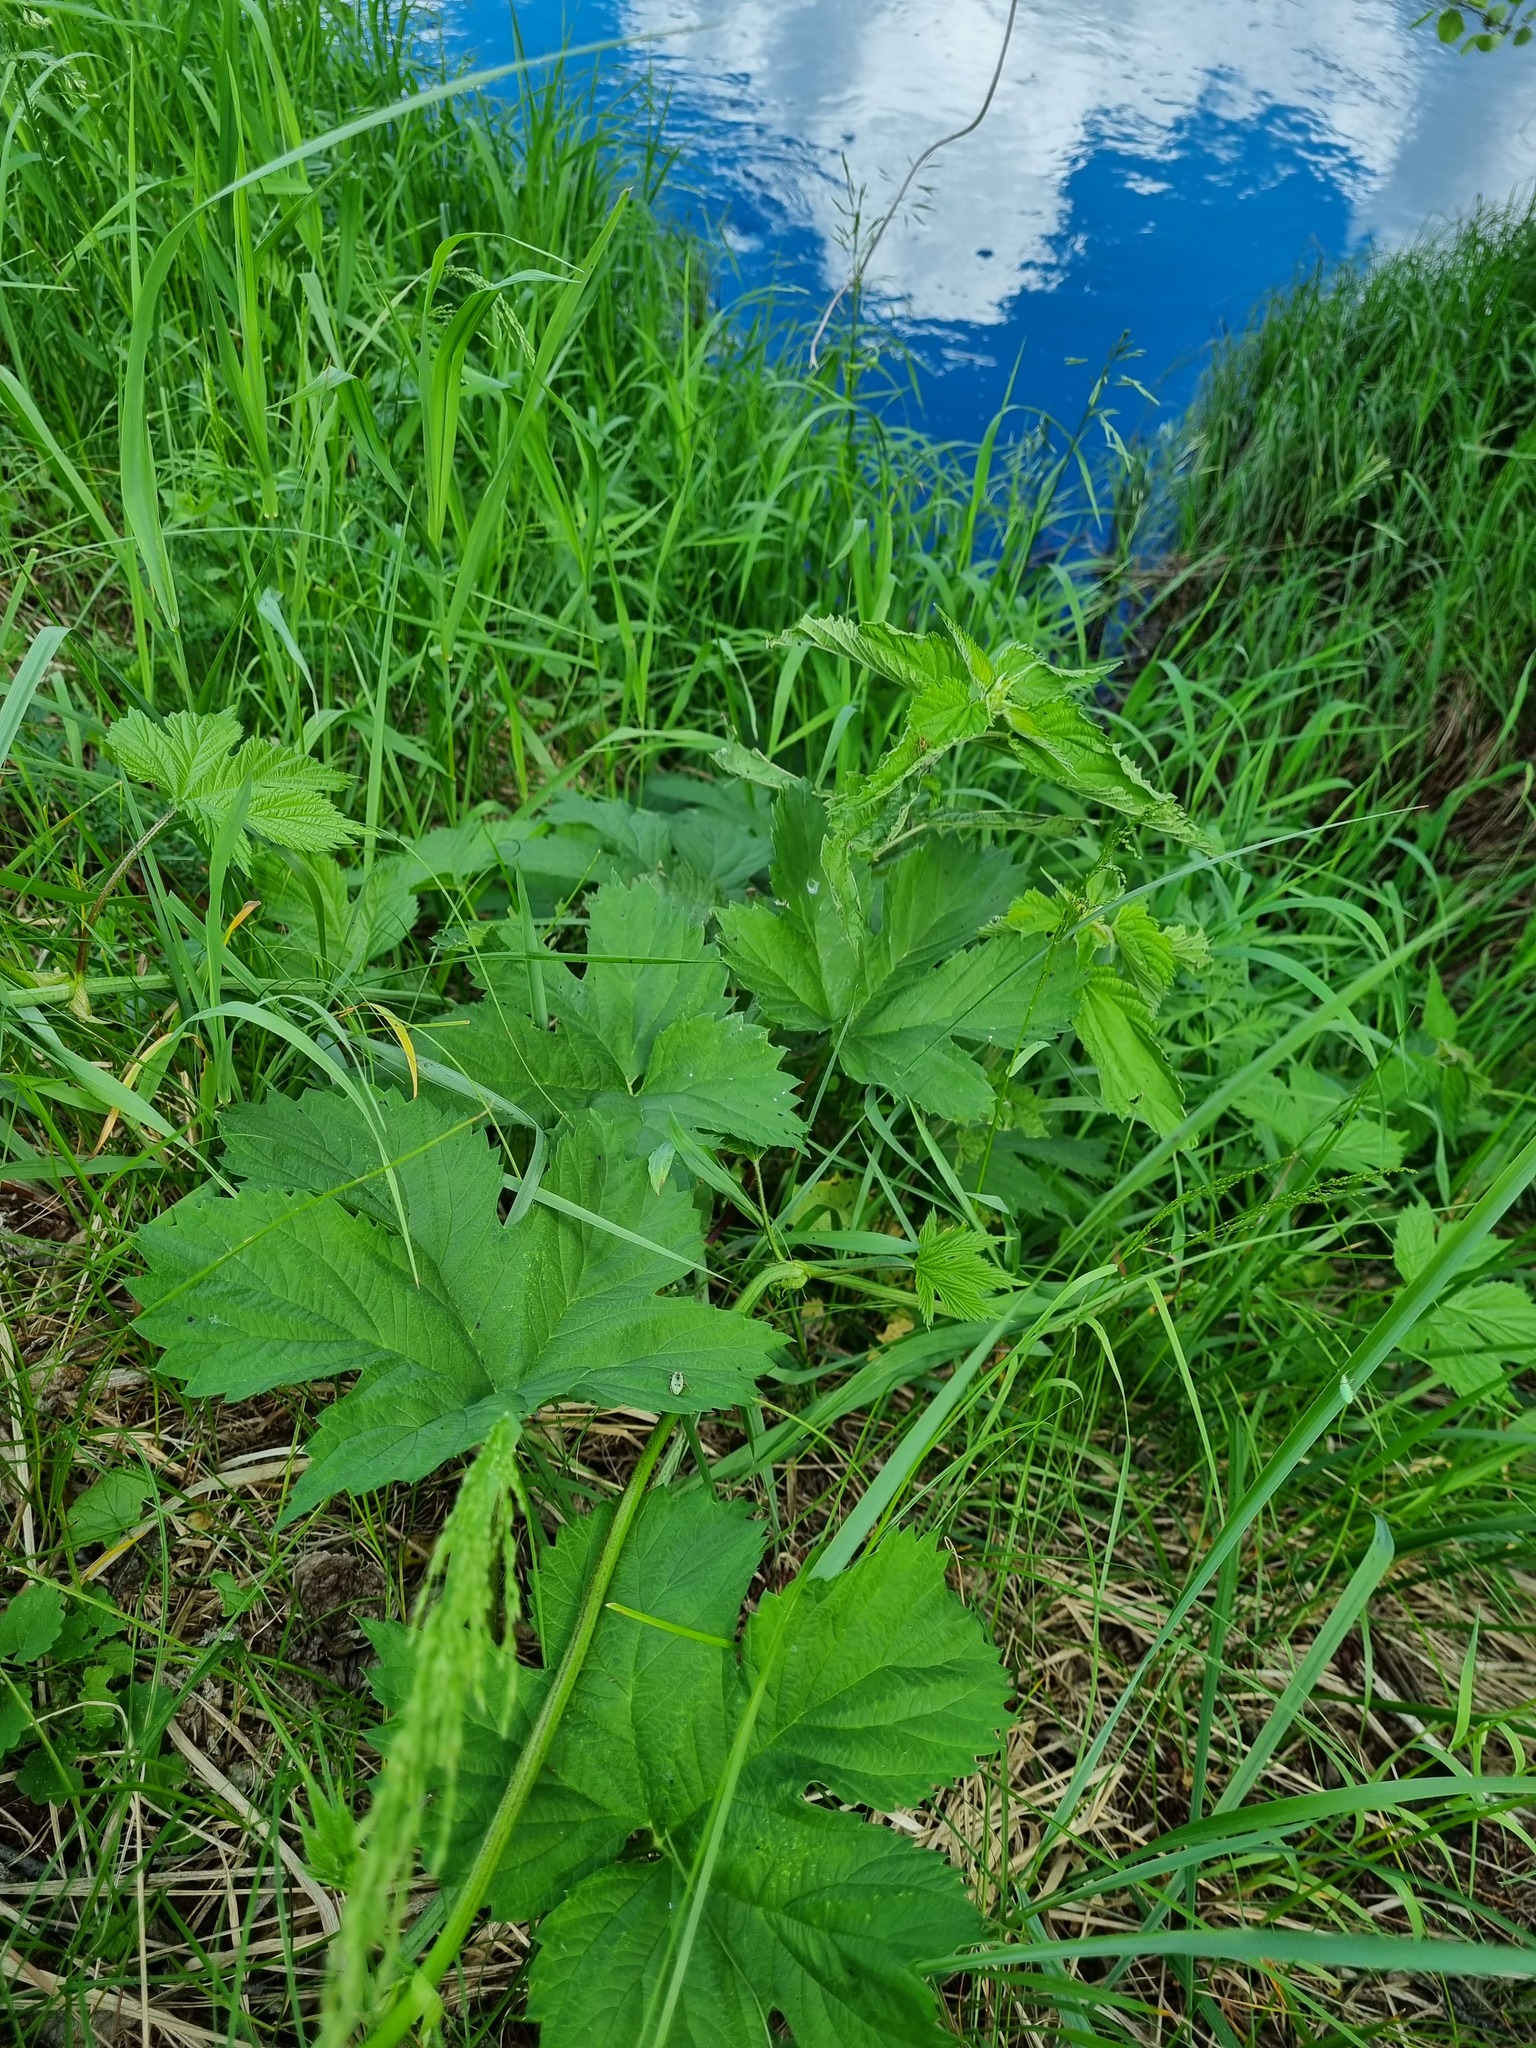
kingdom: Plantae
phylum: Tracheophyta
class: Magnoliopsida
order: Rosales
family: Cannabaceae
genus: Humulus
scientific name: Humulus lupulus
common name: Hop
